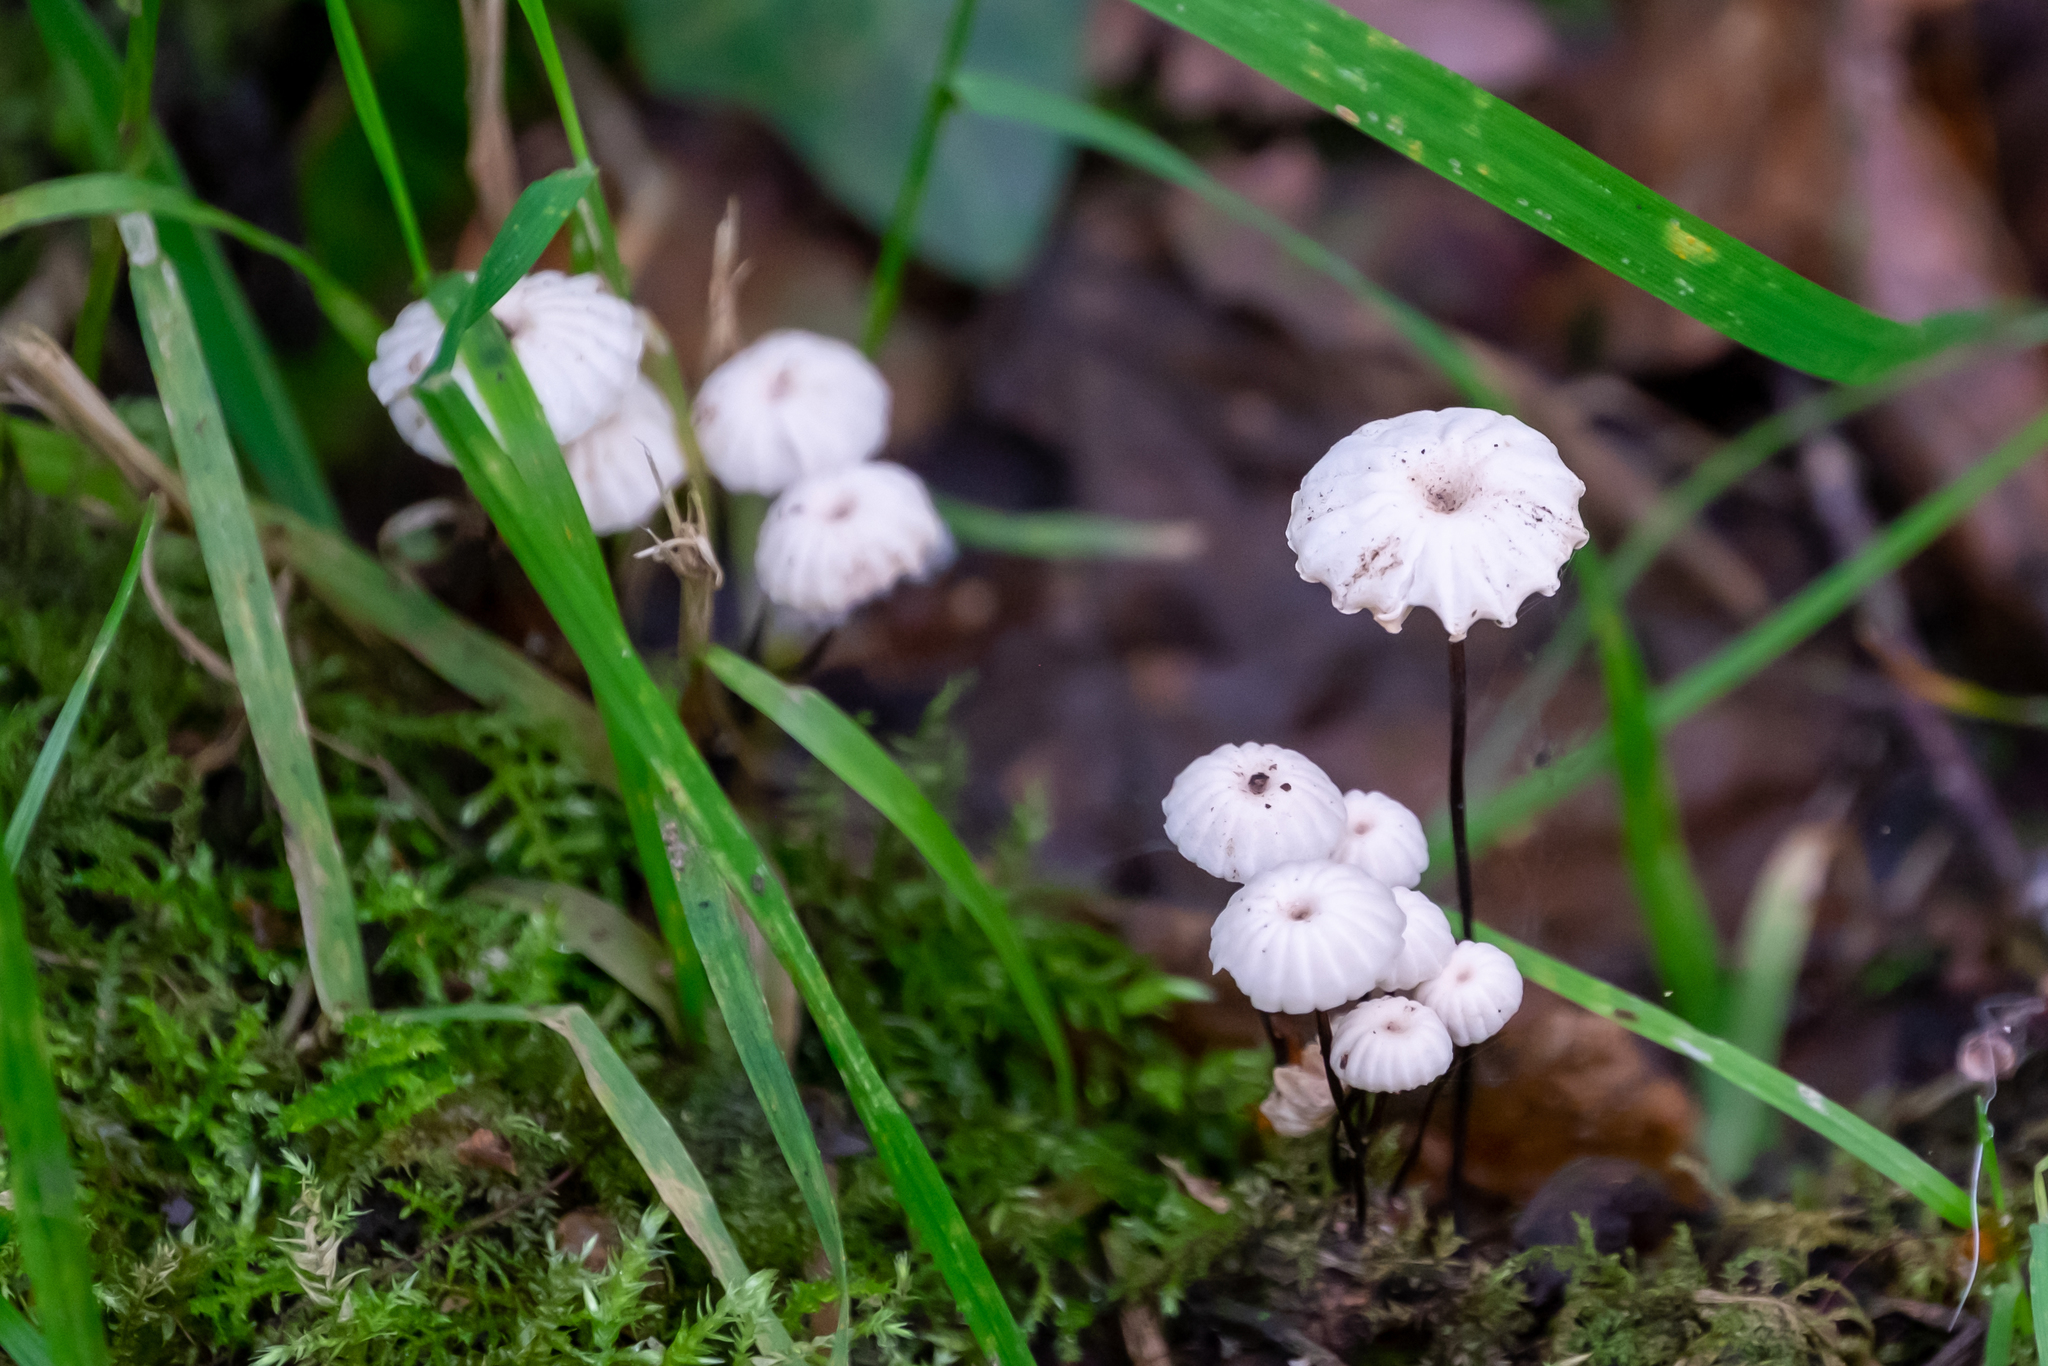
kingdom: Fungi
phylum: Basidiomycota
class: Agaricomycetes
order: Agaricales
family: Marasmiaceae
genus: Marasmius
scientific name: Marasmius rotula
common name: Collared parachute
